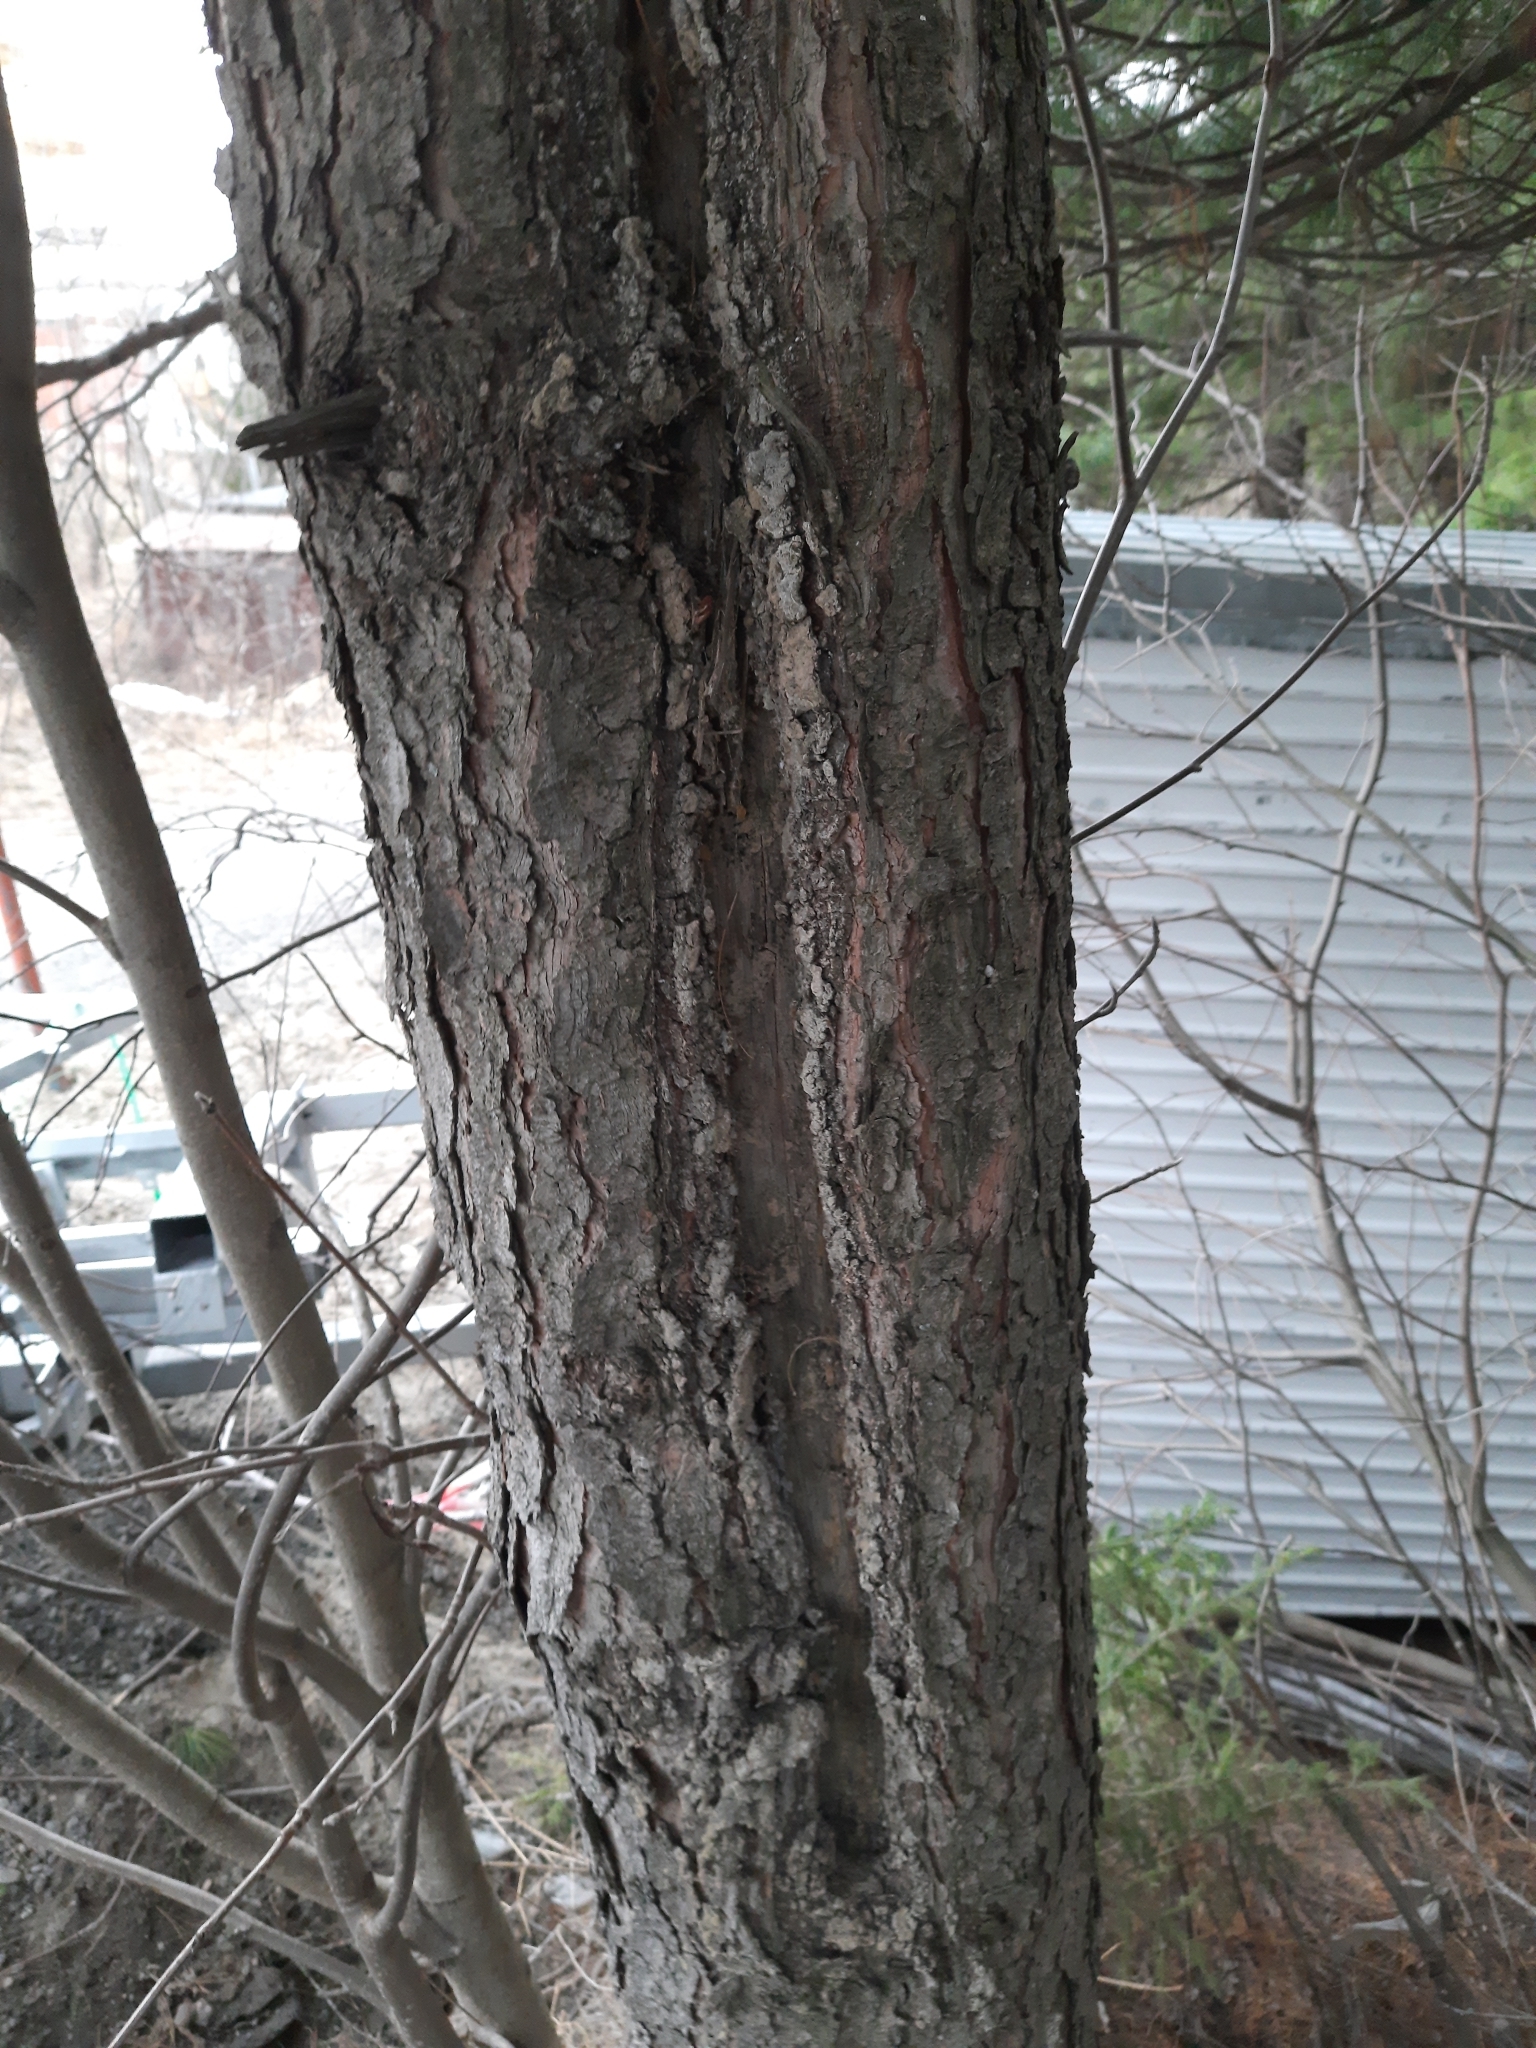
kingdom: Plantae
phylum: Tracheophyta
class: Pinopsida
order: Pinales
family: Pinaceae
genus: Pinus
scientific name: Pinus sibirica
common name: Siberian pine
